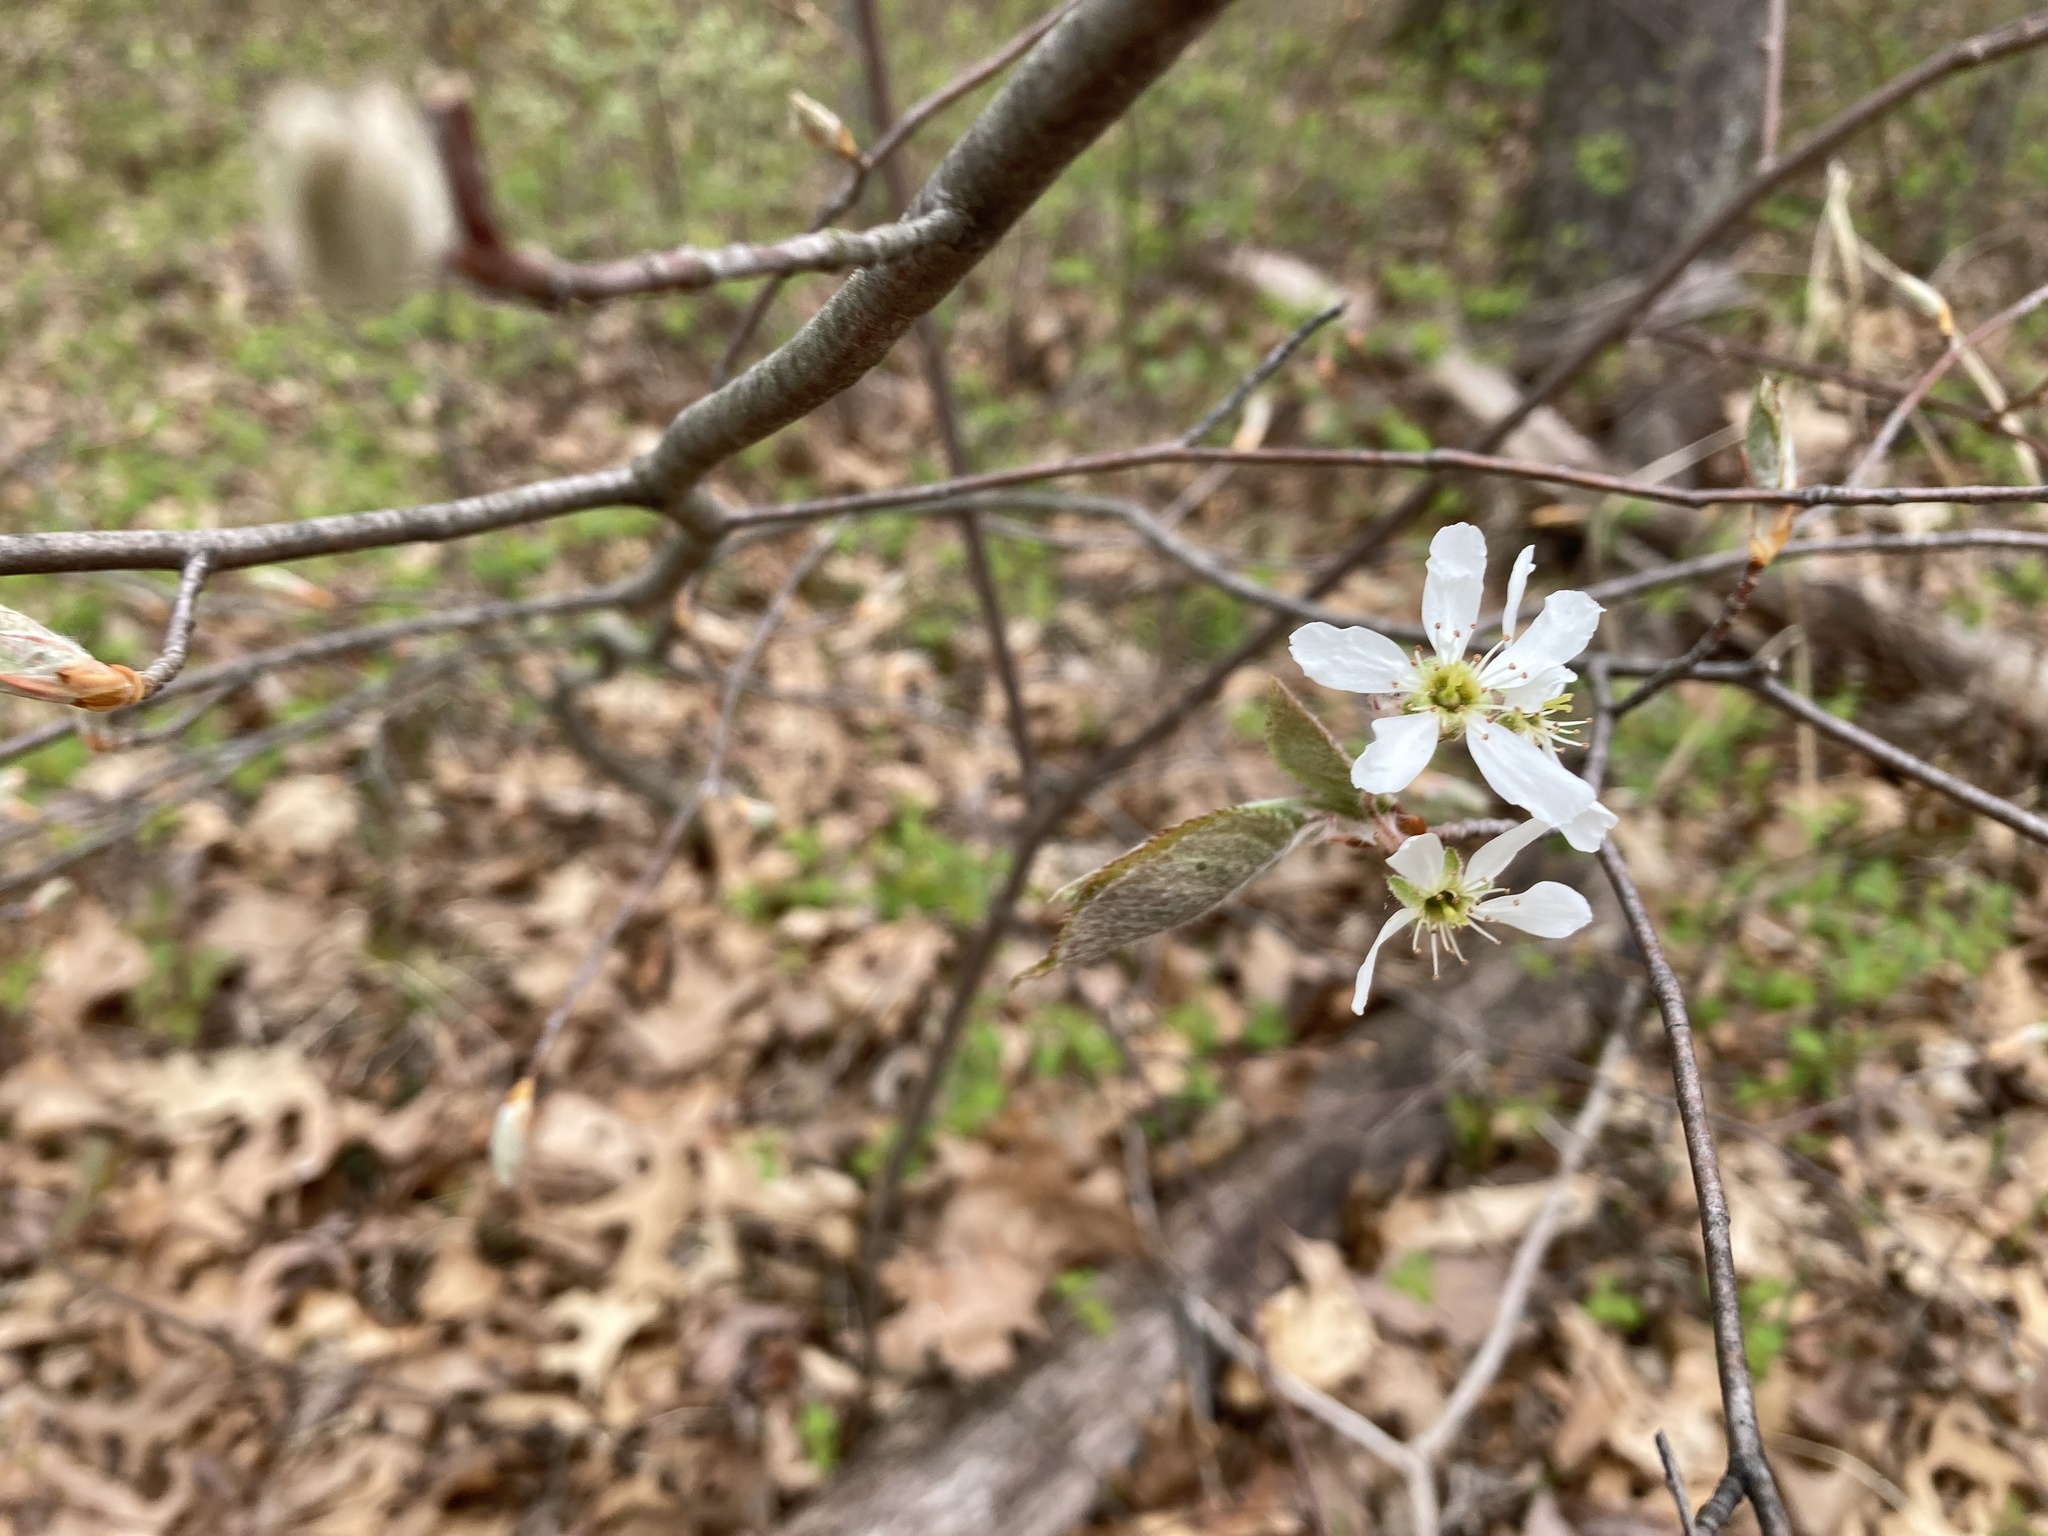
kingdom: Plantae
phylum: Tracheophyta
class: Magnoliopsida
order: Rosales
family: Rosaceae
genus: Amelanchier
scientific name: Amelanchier arborea
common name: Downy serviceberry
